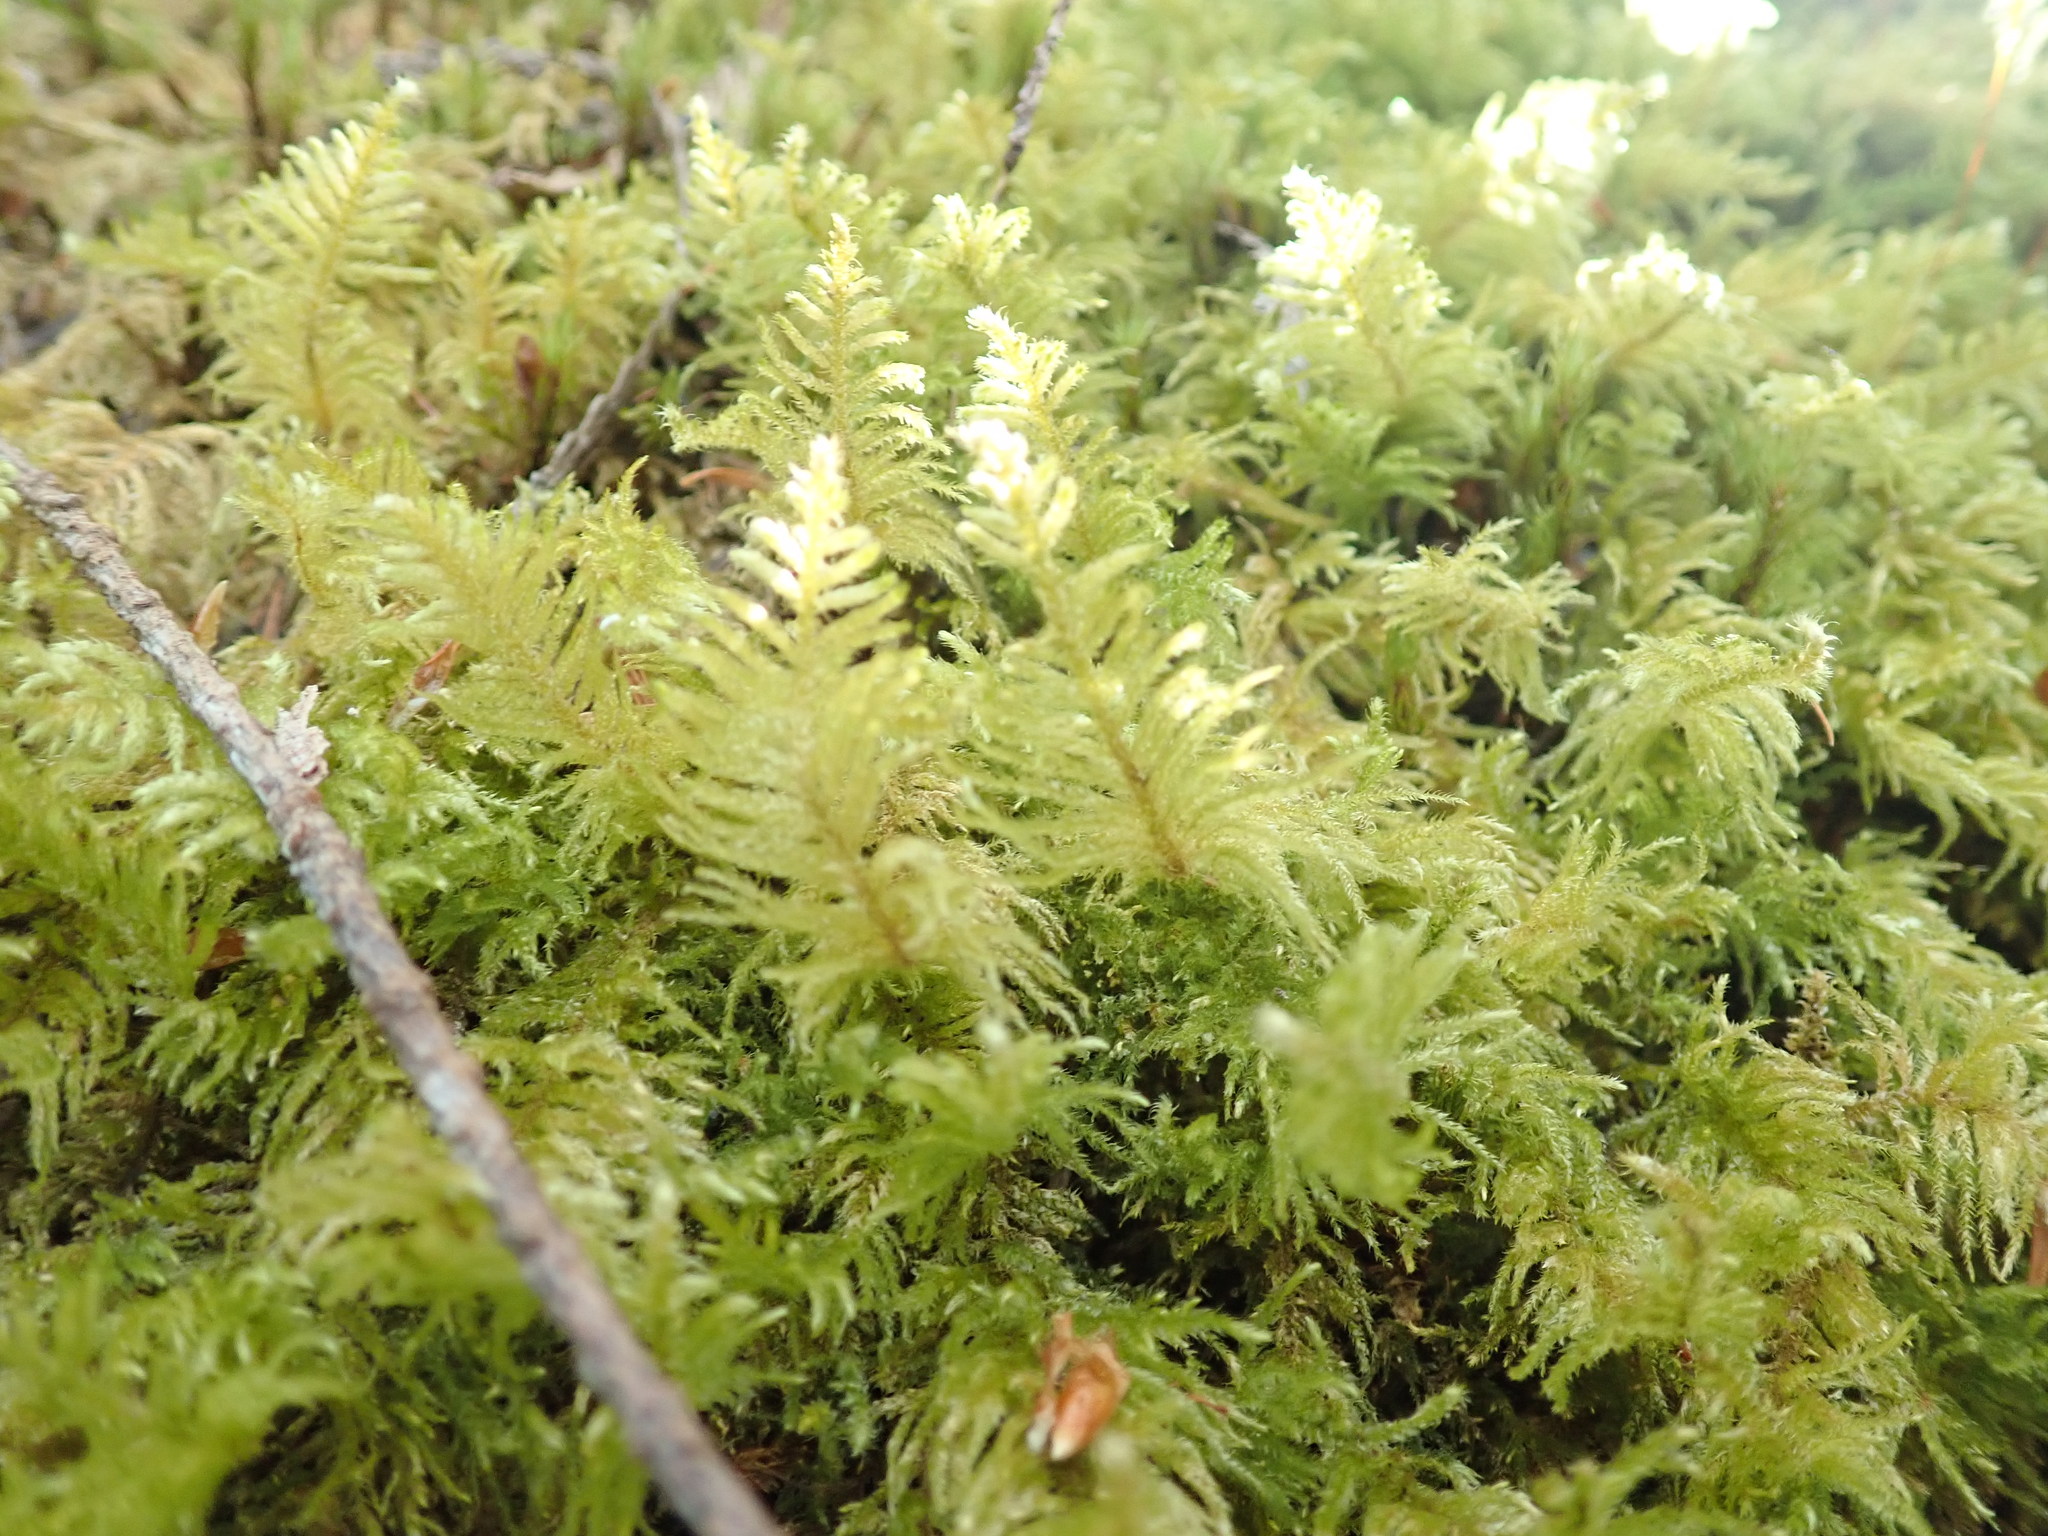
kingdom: Plantae
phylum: Bryophyta
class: Bryopsida
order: Hypnales
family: Brachytheciaceae
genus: Kindbergia
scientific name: Kindbergia oregana
